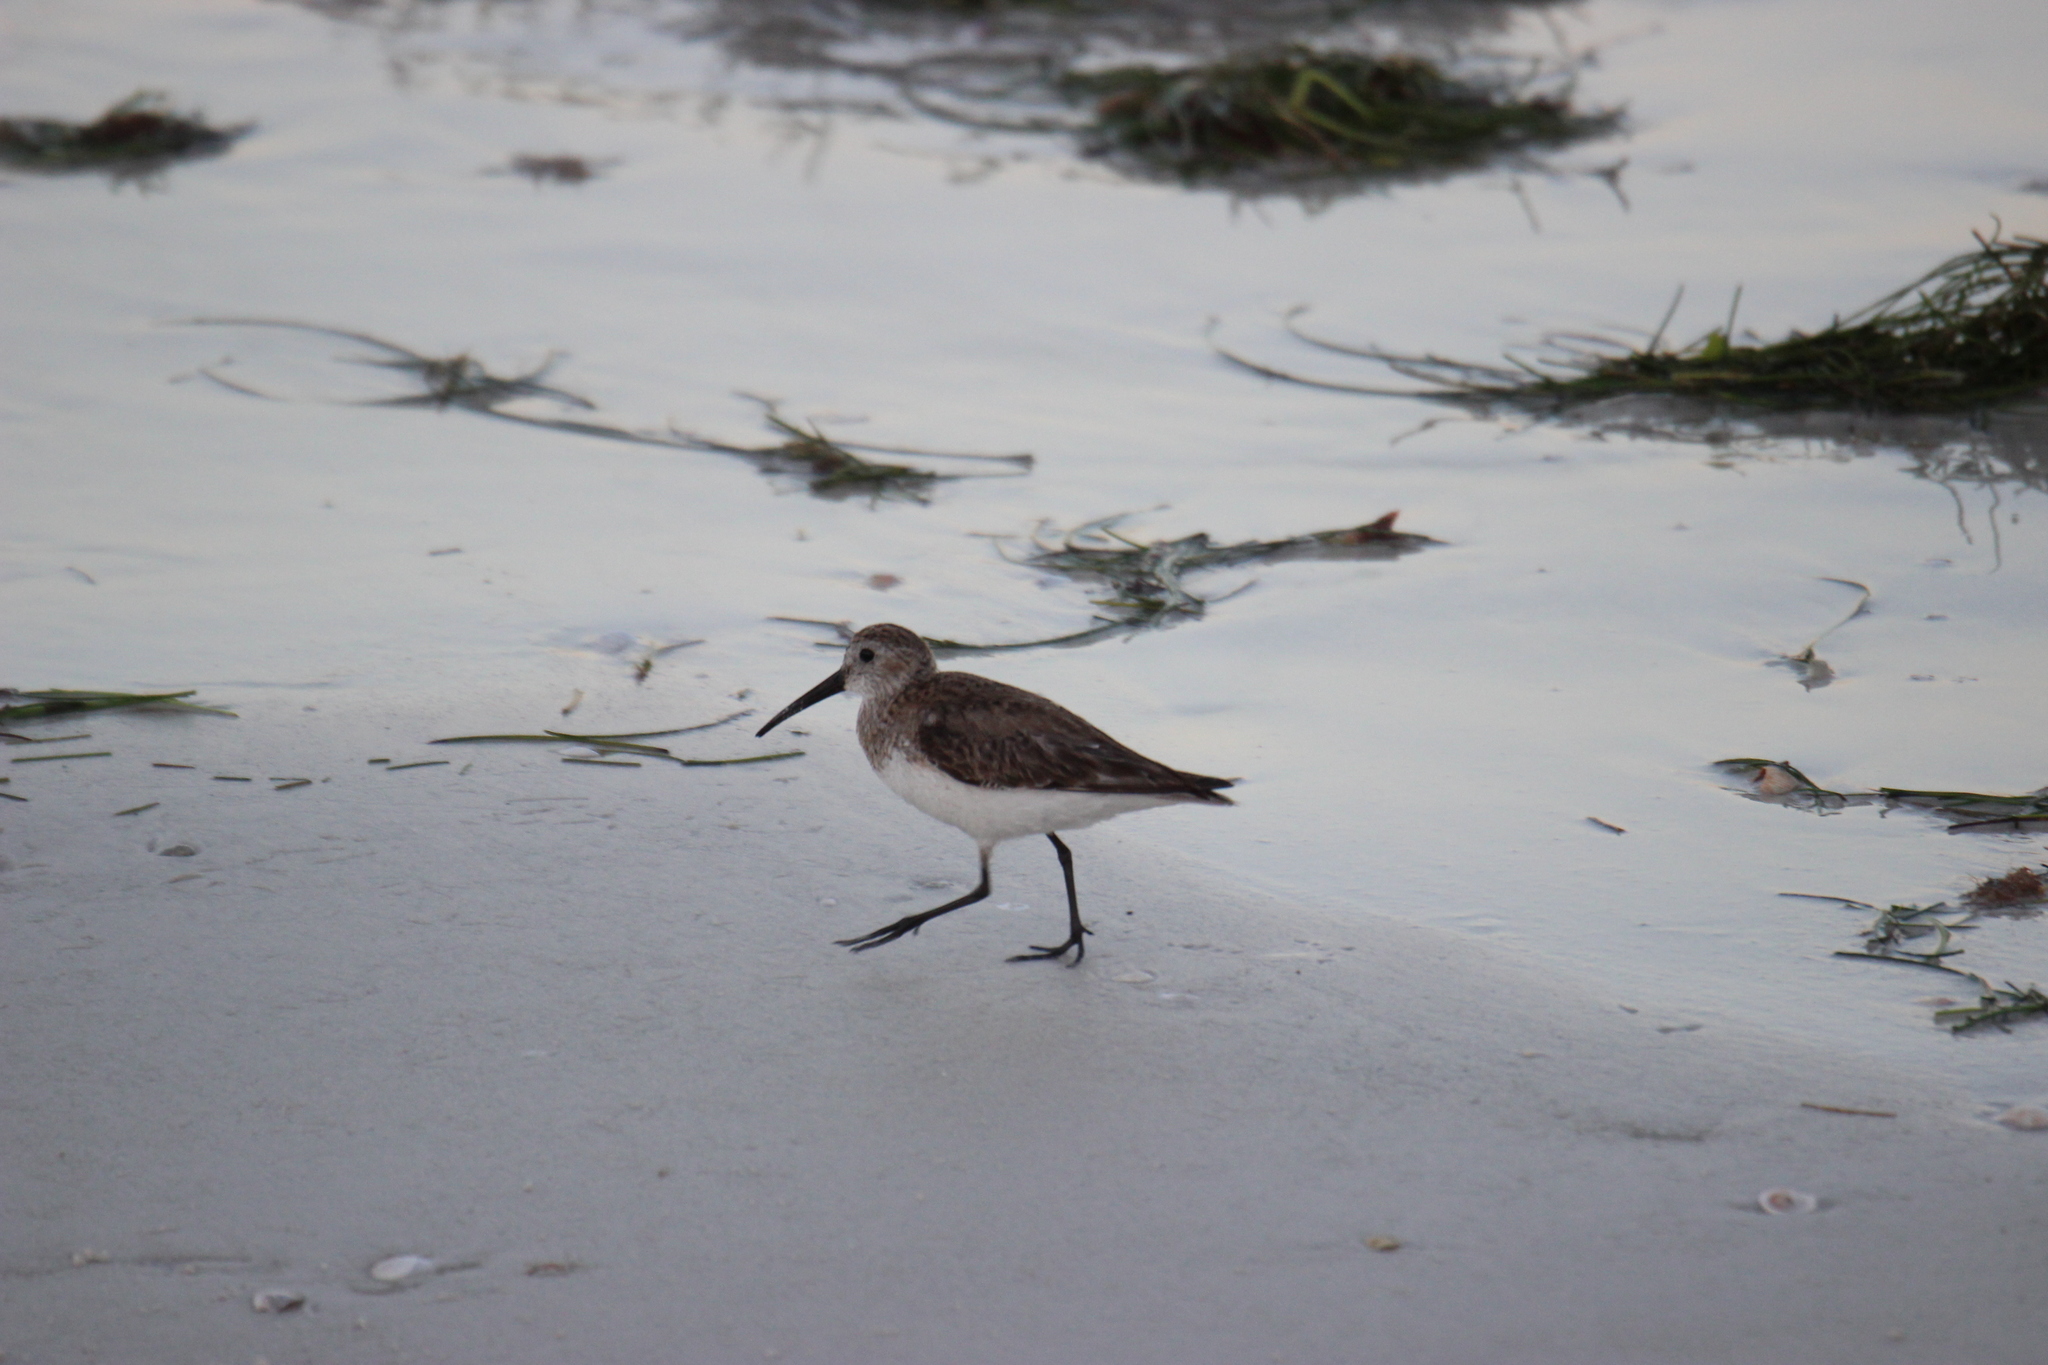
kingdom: Animalia
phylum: Chordata
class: Aves
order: Charadriiformes
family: Scolopacidae
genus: Calidris
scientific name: Calidris alpina
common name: Dunlin
